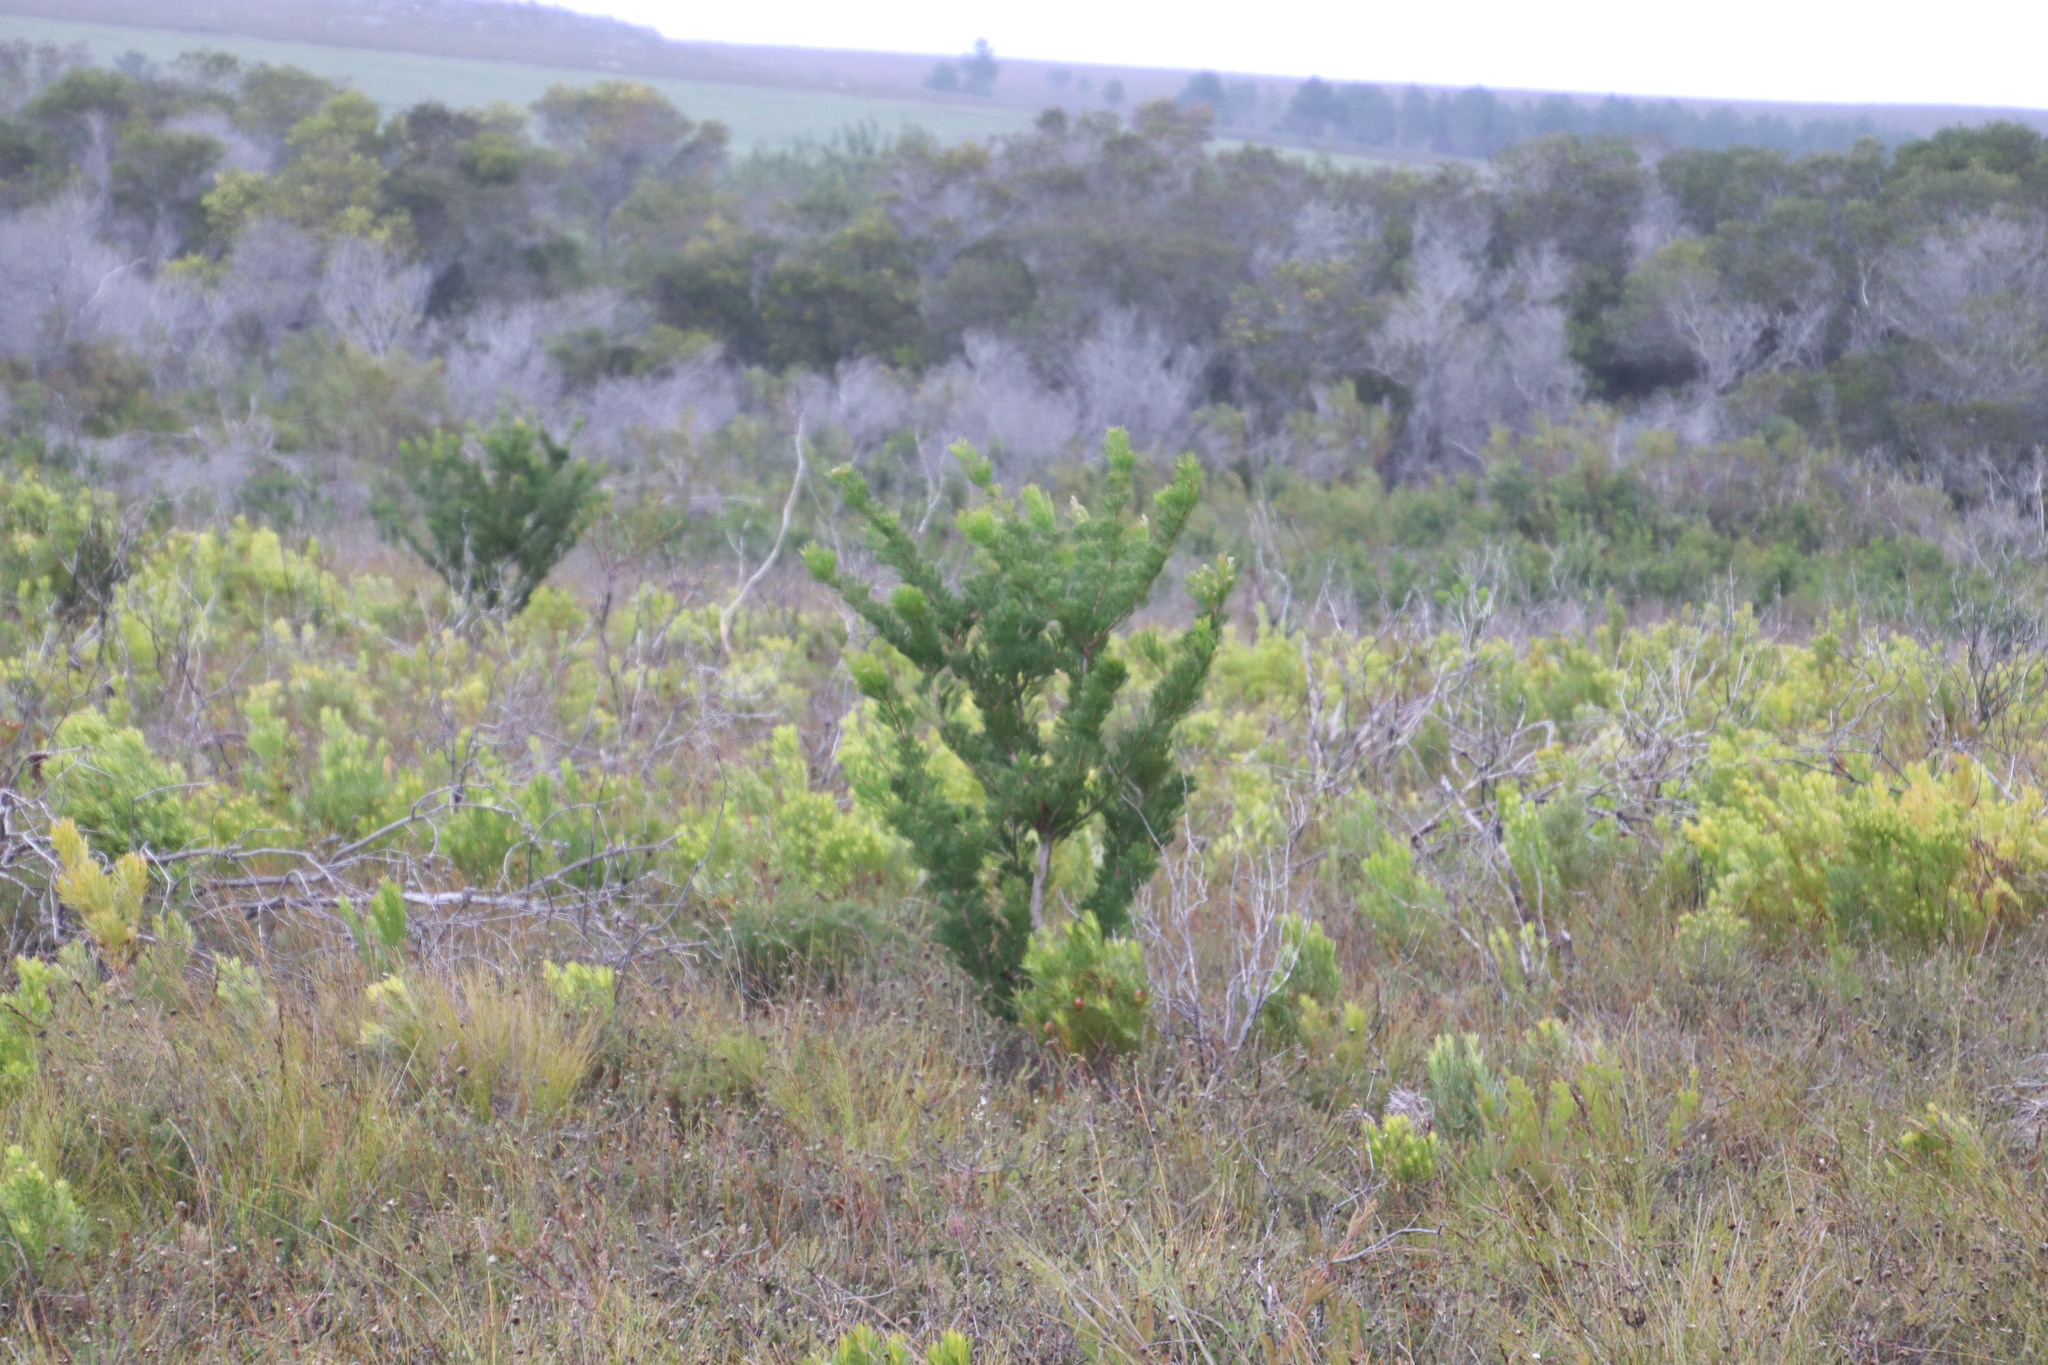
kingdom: Plantae
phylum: Tracheophyta
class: Magnoliopsida
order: Proteales
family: Proteaceae
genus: Hakea
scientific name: Hakea drupacea
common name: Sweet hakea
